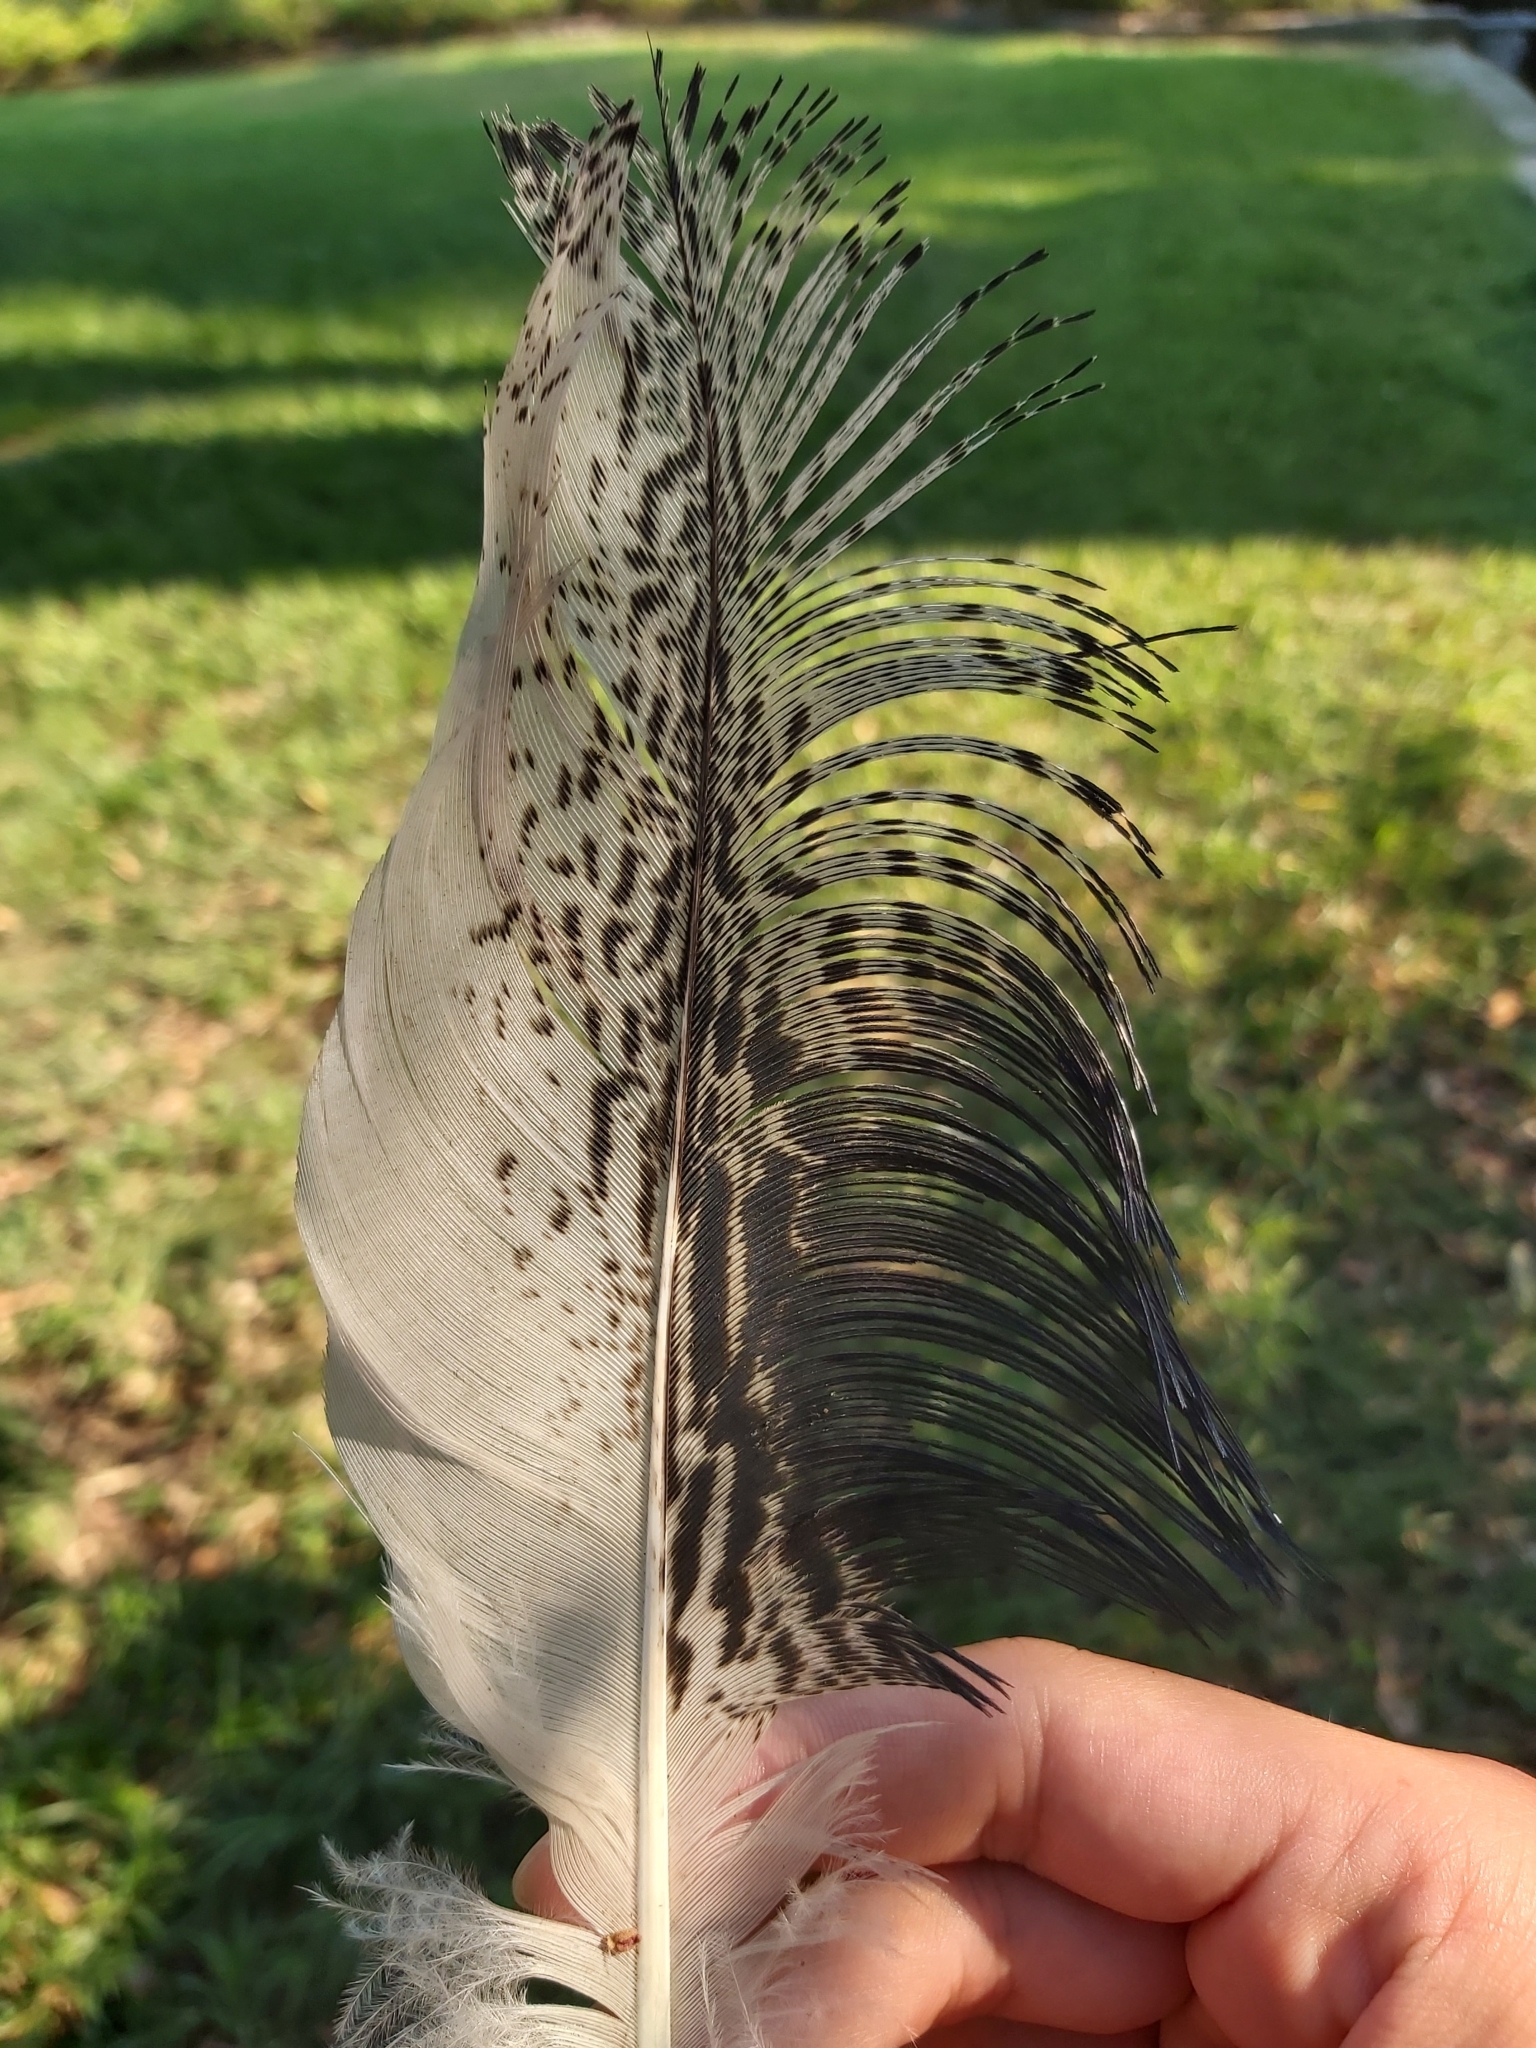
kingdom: Animalia
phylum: Chordata
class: Aves
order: Pelecaniformes
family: Threskiornithidae
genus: Threskiornis
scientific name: Threskiornis molucca
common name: Australian white ibis
